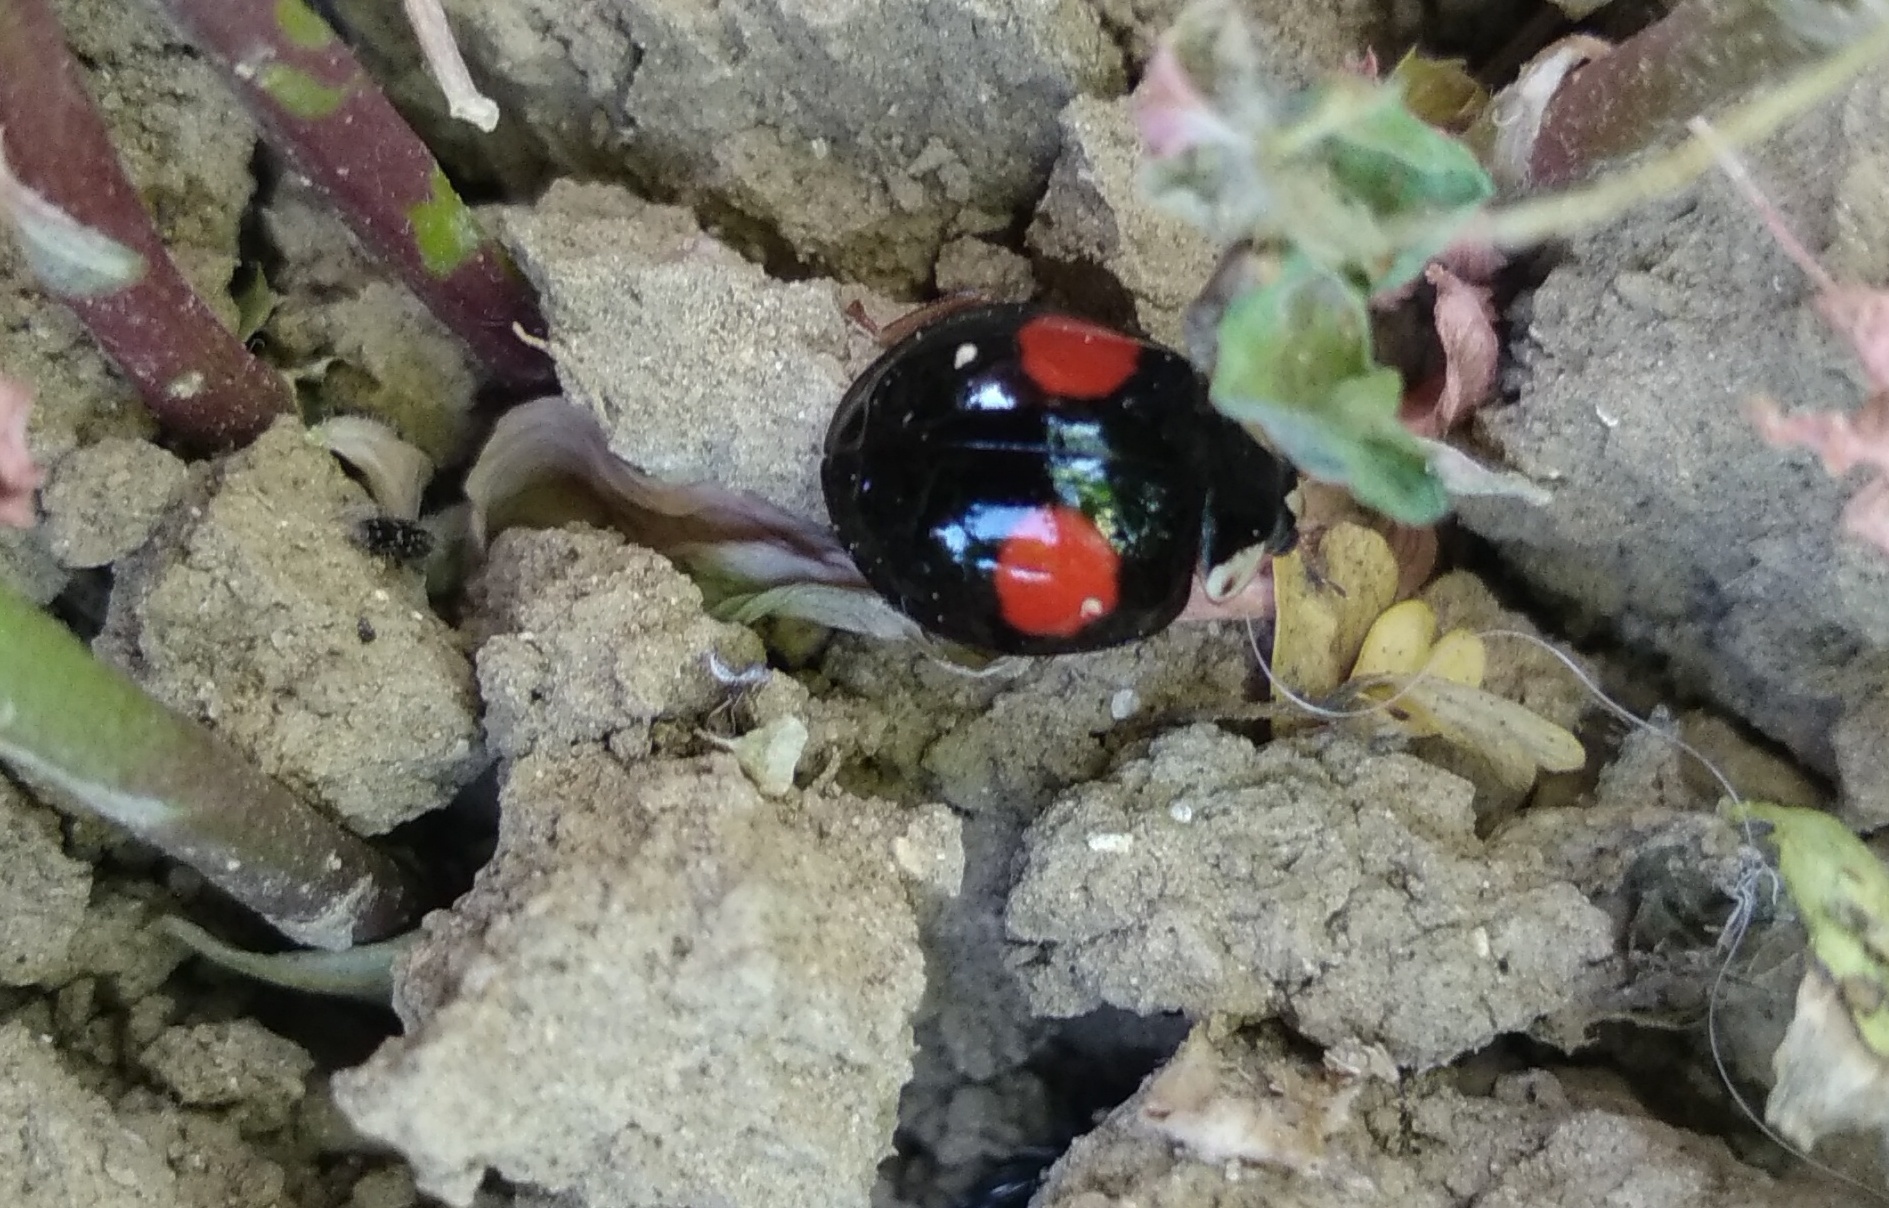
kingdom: Animalia
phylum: Arthropoda
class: Insecta
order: Coleoptera
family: Coccinellidae
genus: Harmonia
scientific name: Harmonia axyridis
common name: Harlequin ladybird
